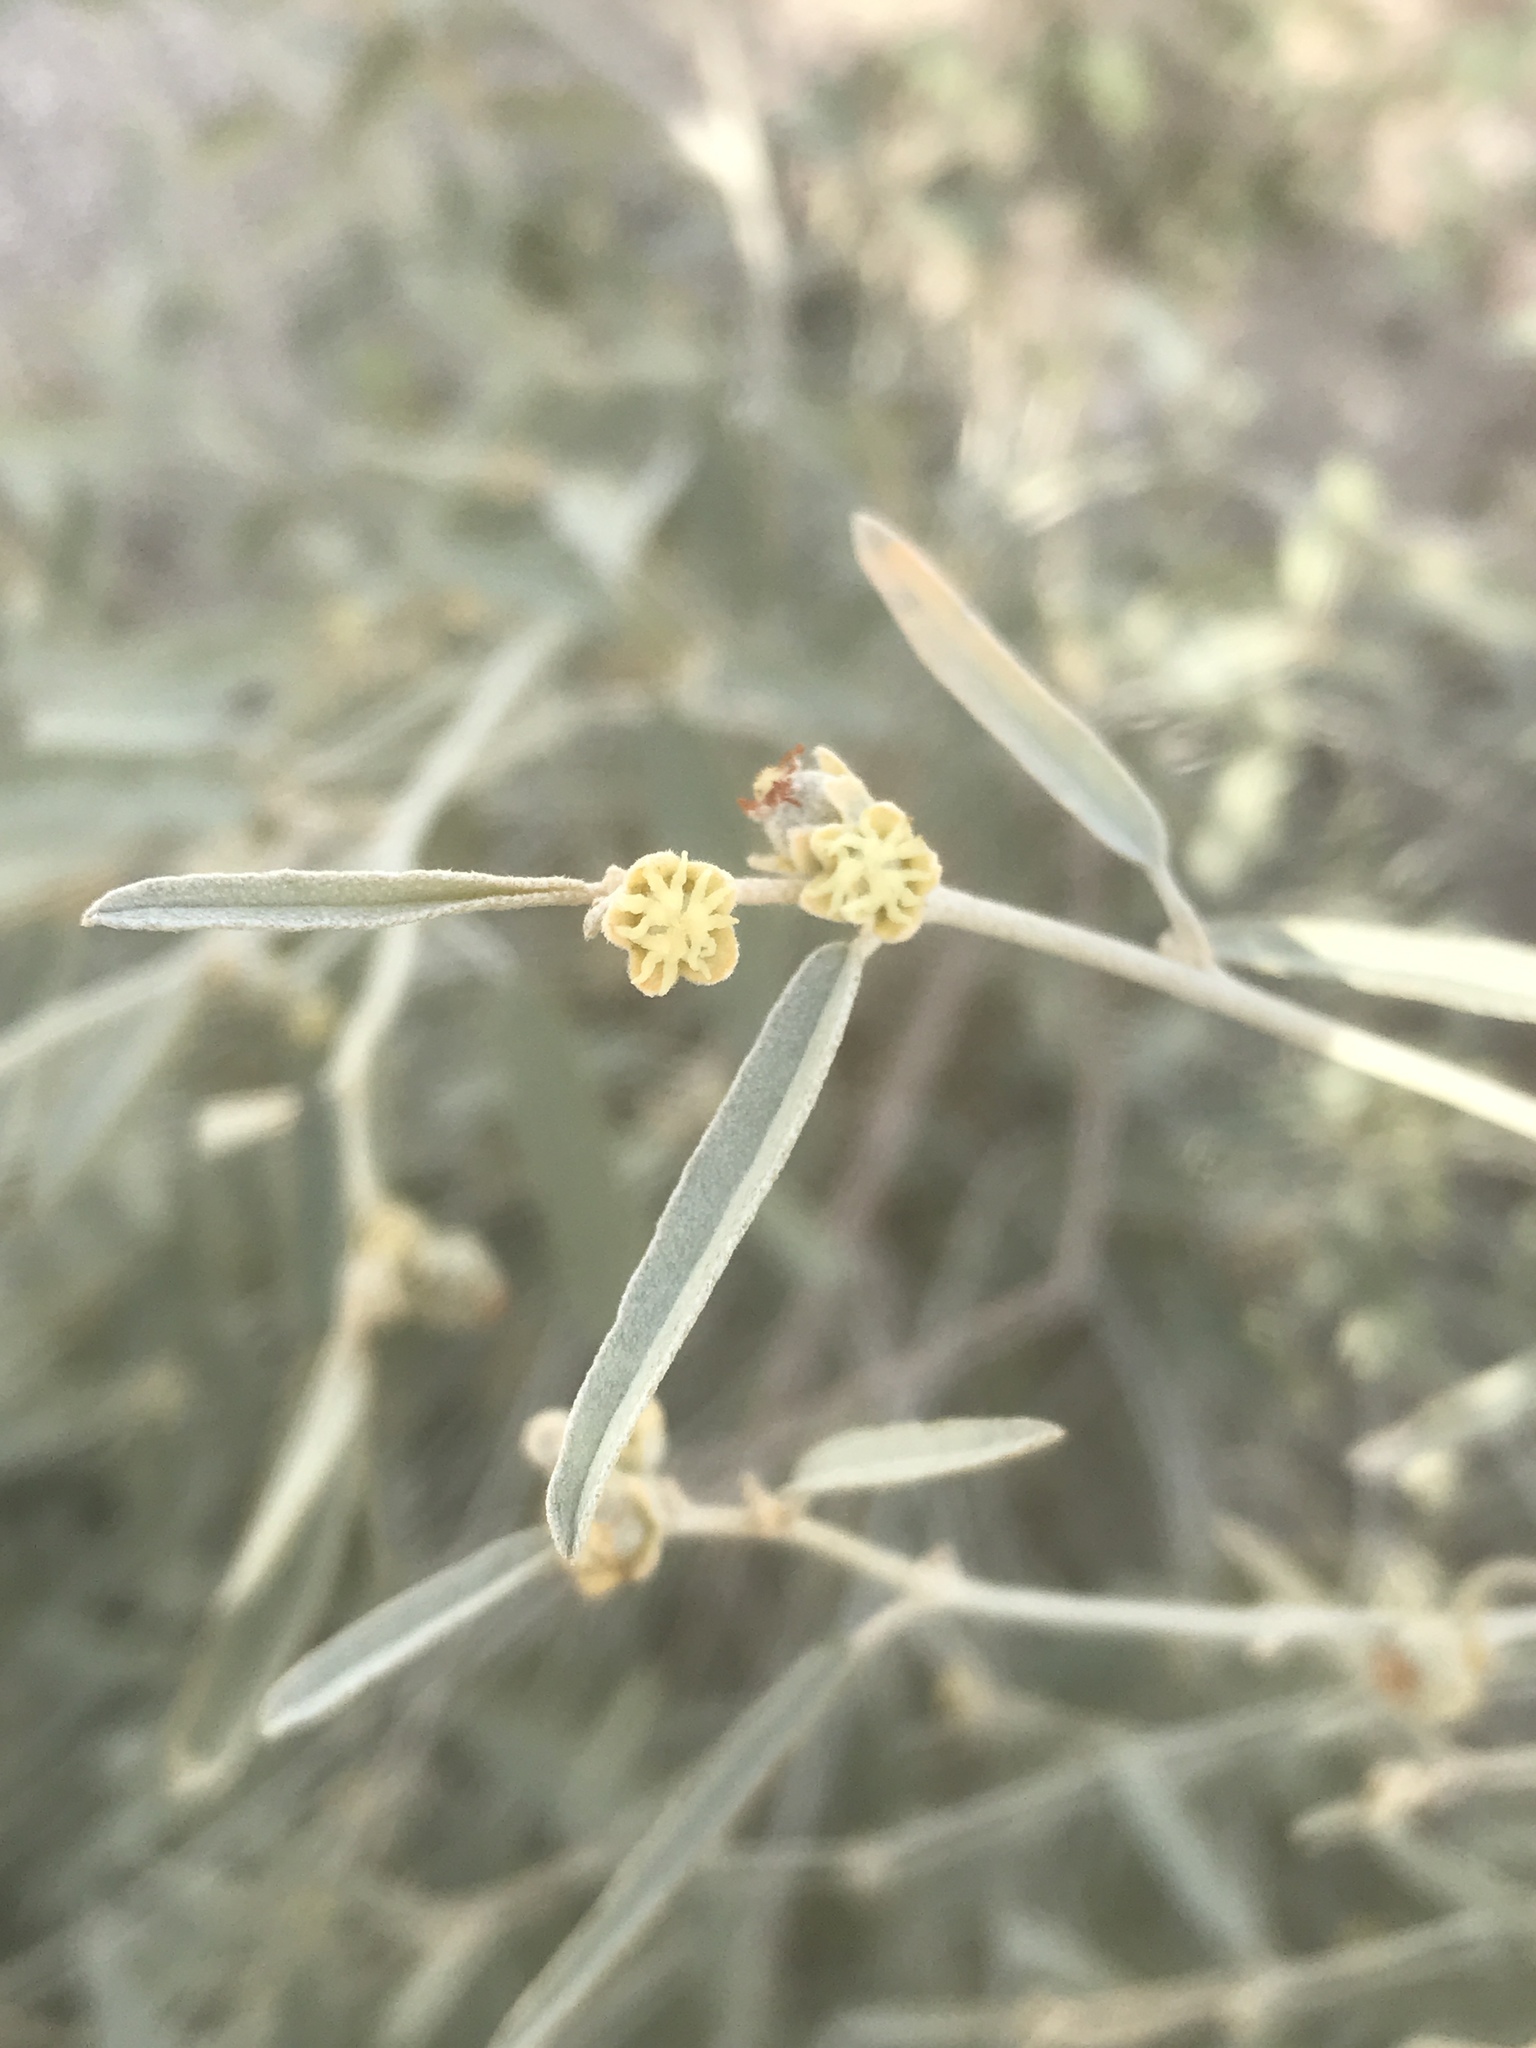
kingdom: Plantae
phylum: Tracheophyta
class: Magnoliopsida
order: Malpighiales
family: Euphorbiaceae
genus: Croton
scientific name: Croton californicus
